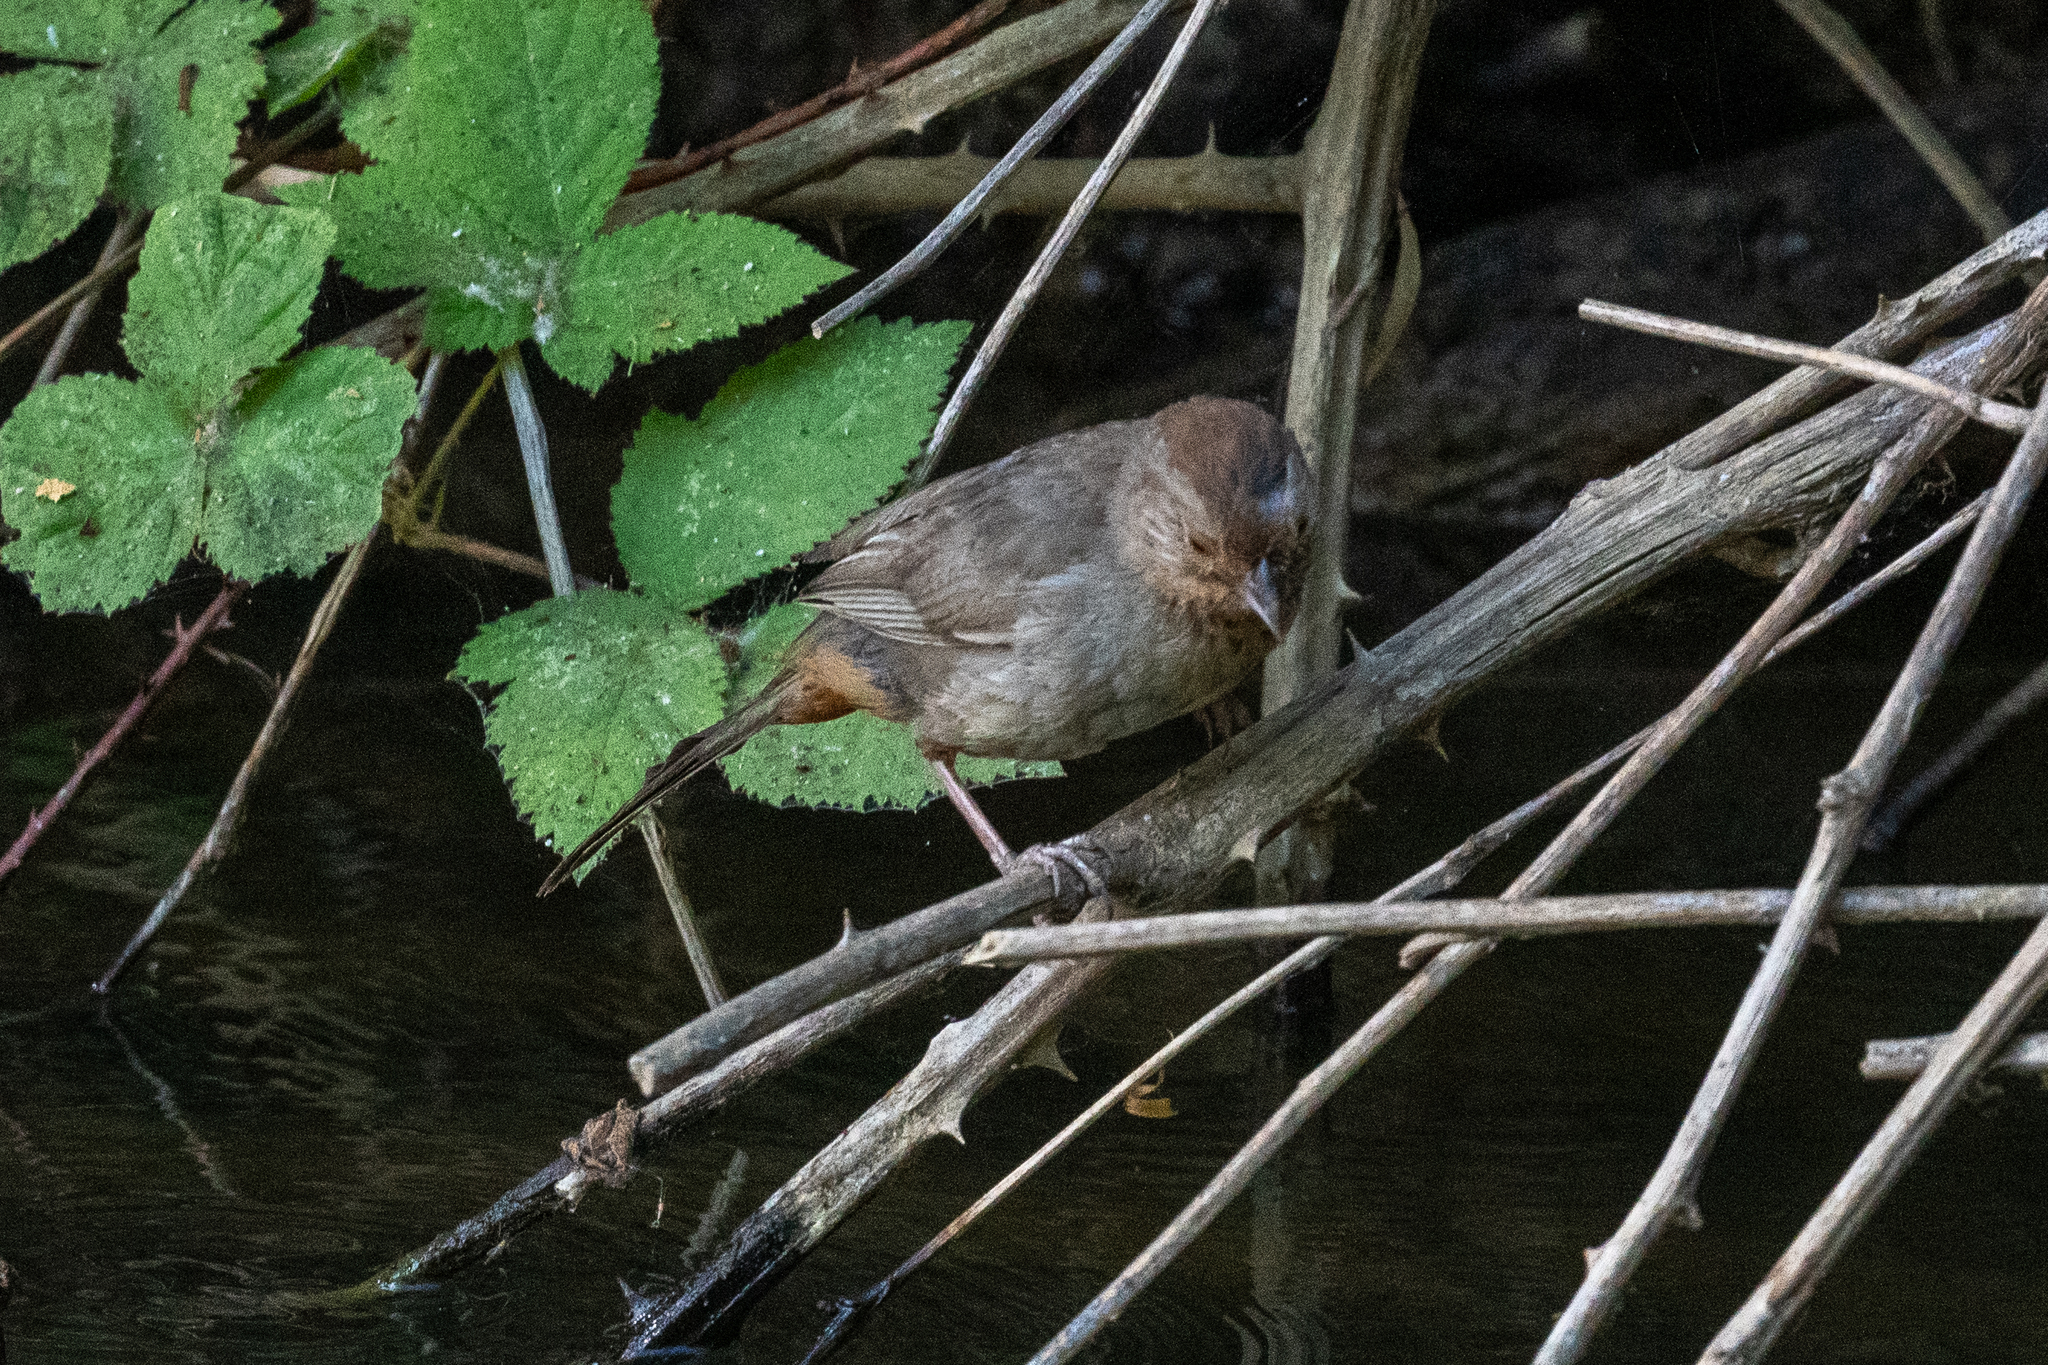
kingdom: Animalia
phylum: Chordata
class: Aves
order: Passeriformes
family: Passerellidae
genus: Melozone
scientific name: Melozone crissalis
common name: California towhee
